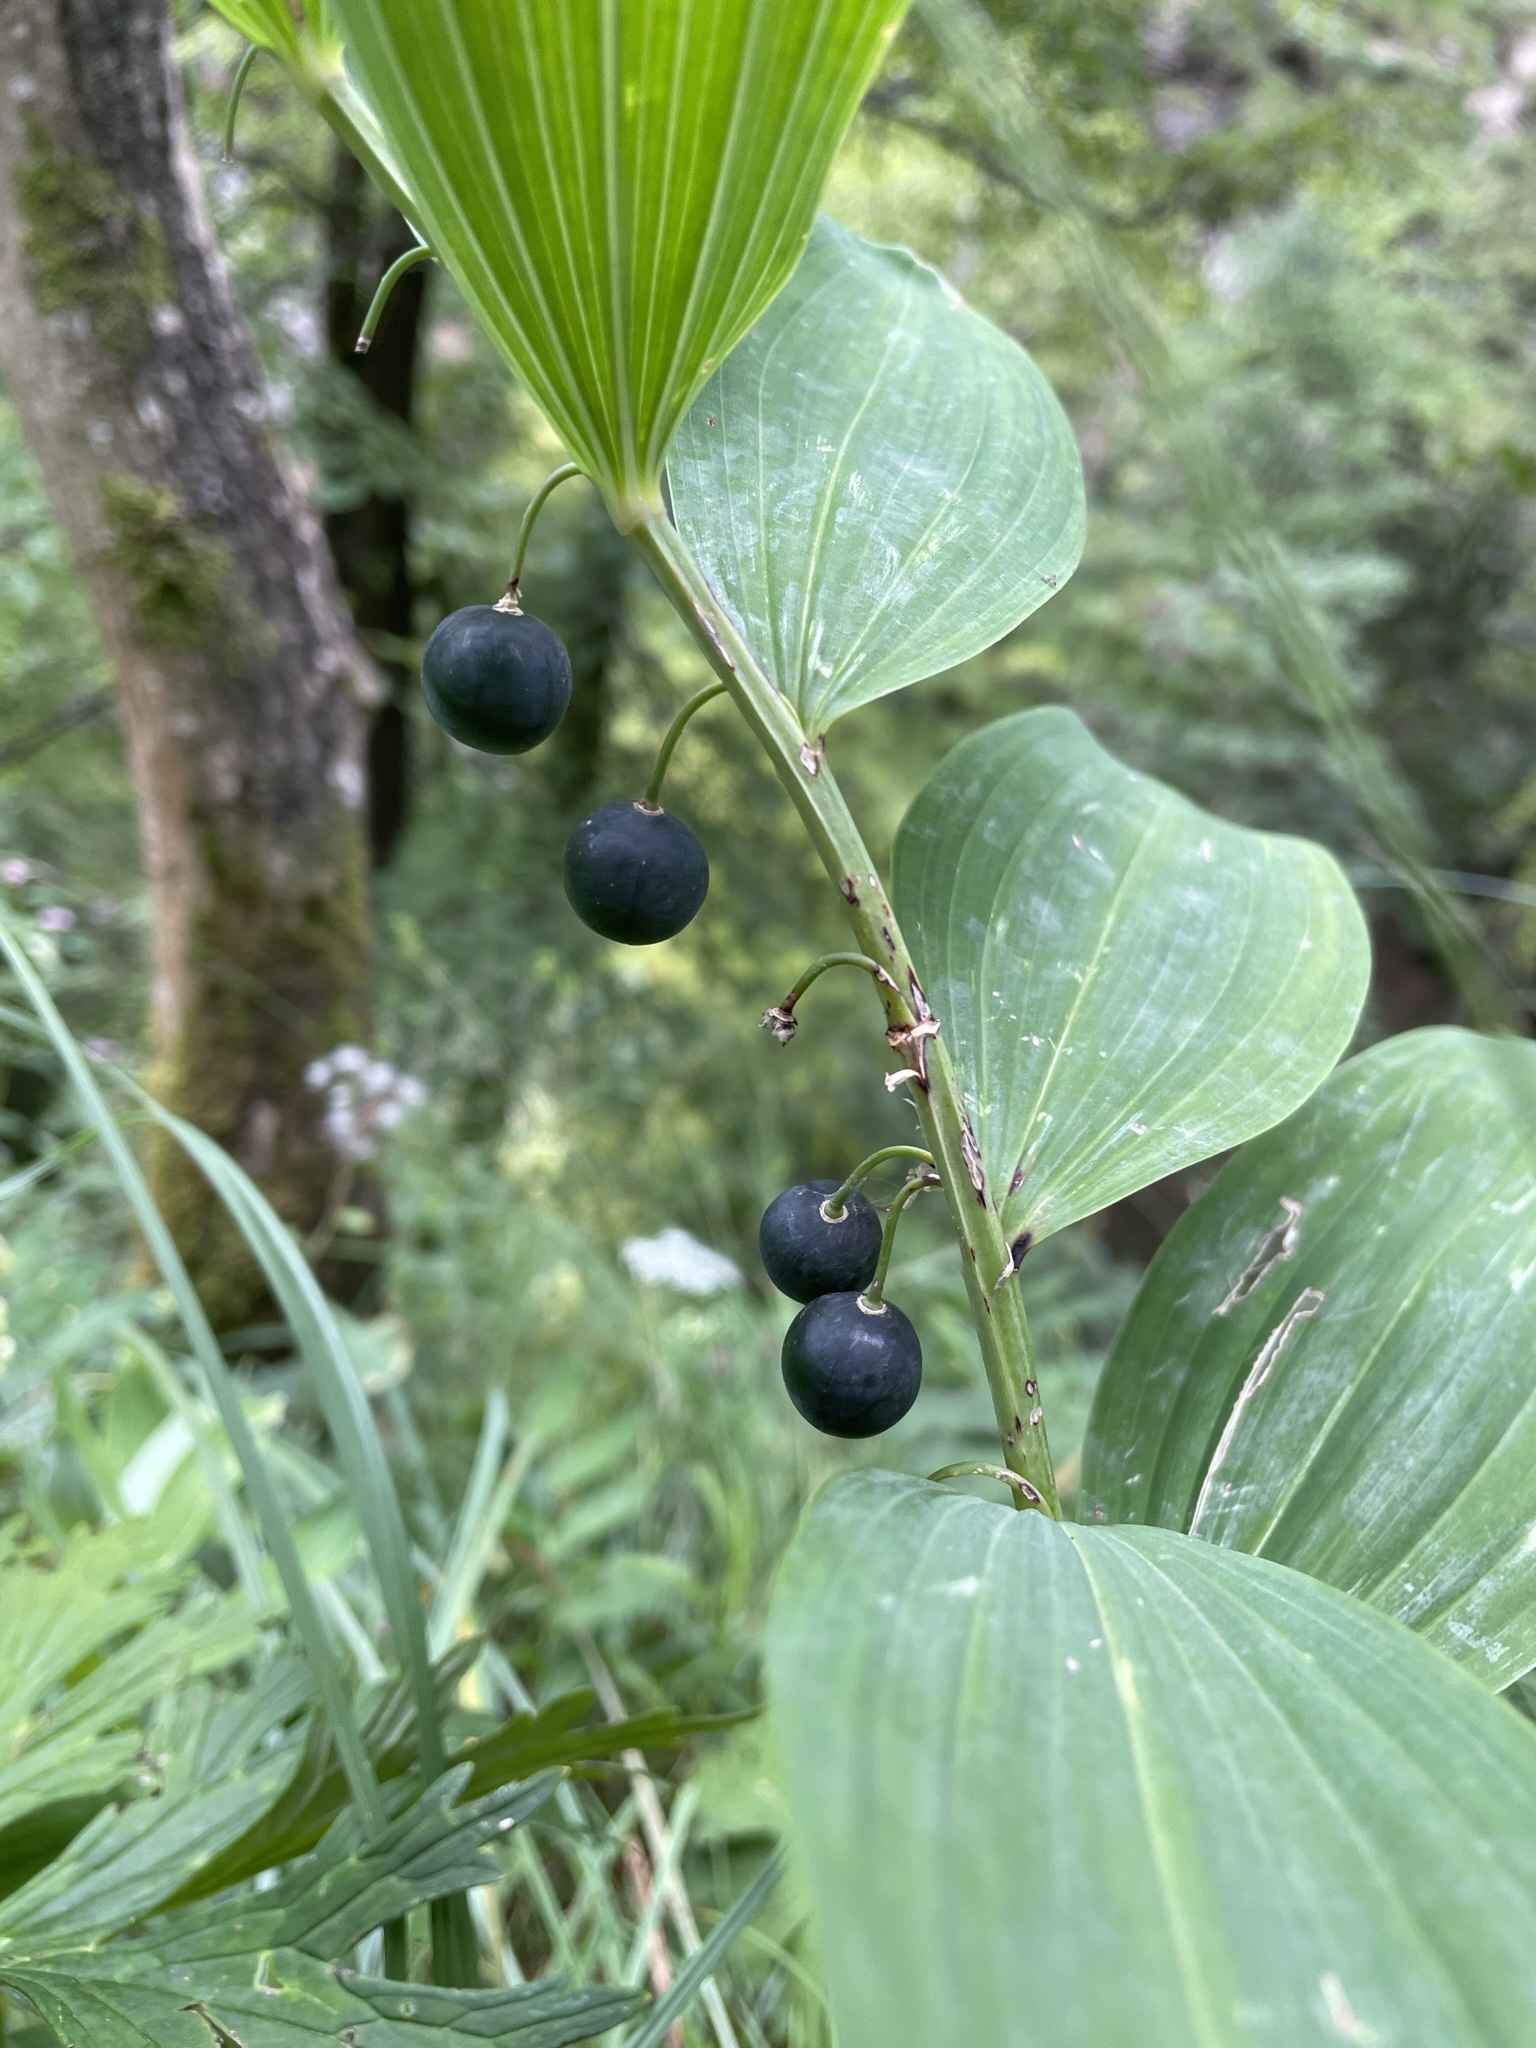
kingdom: Plantae
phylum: Tracheophyta
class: Liliopsida
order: Asparagales
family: Asparagaceae
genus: Polygonatum
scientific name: Polygonatum odoratum
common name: Angular solomon's-seal
